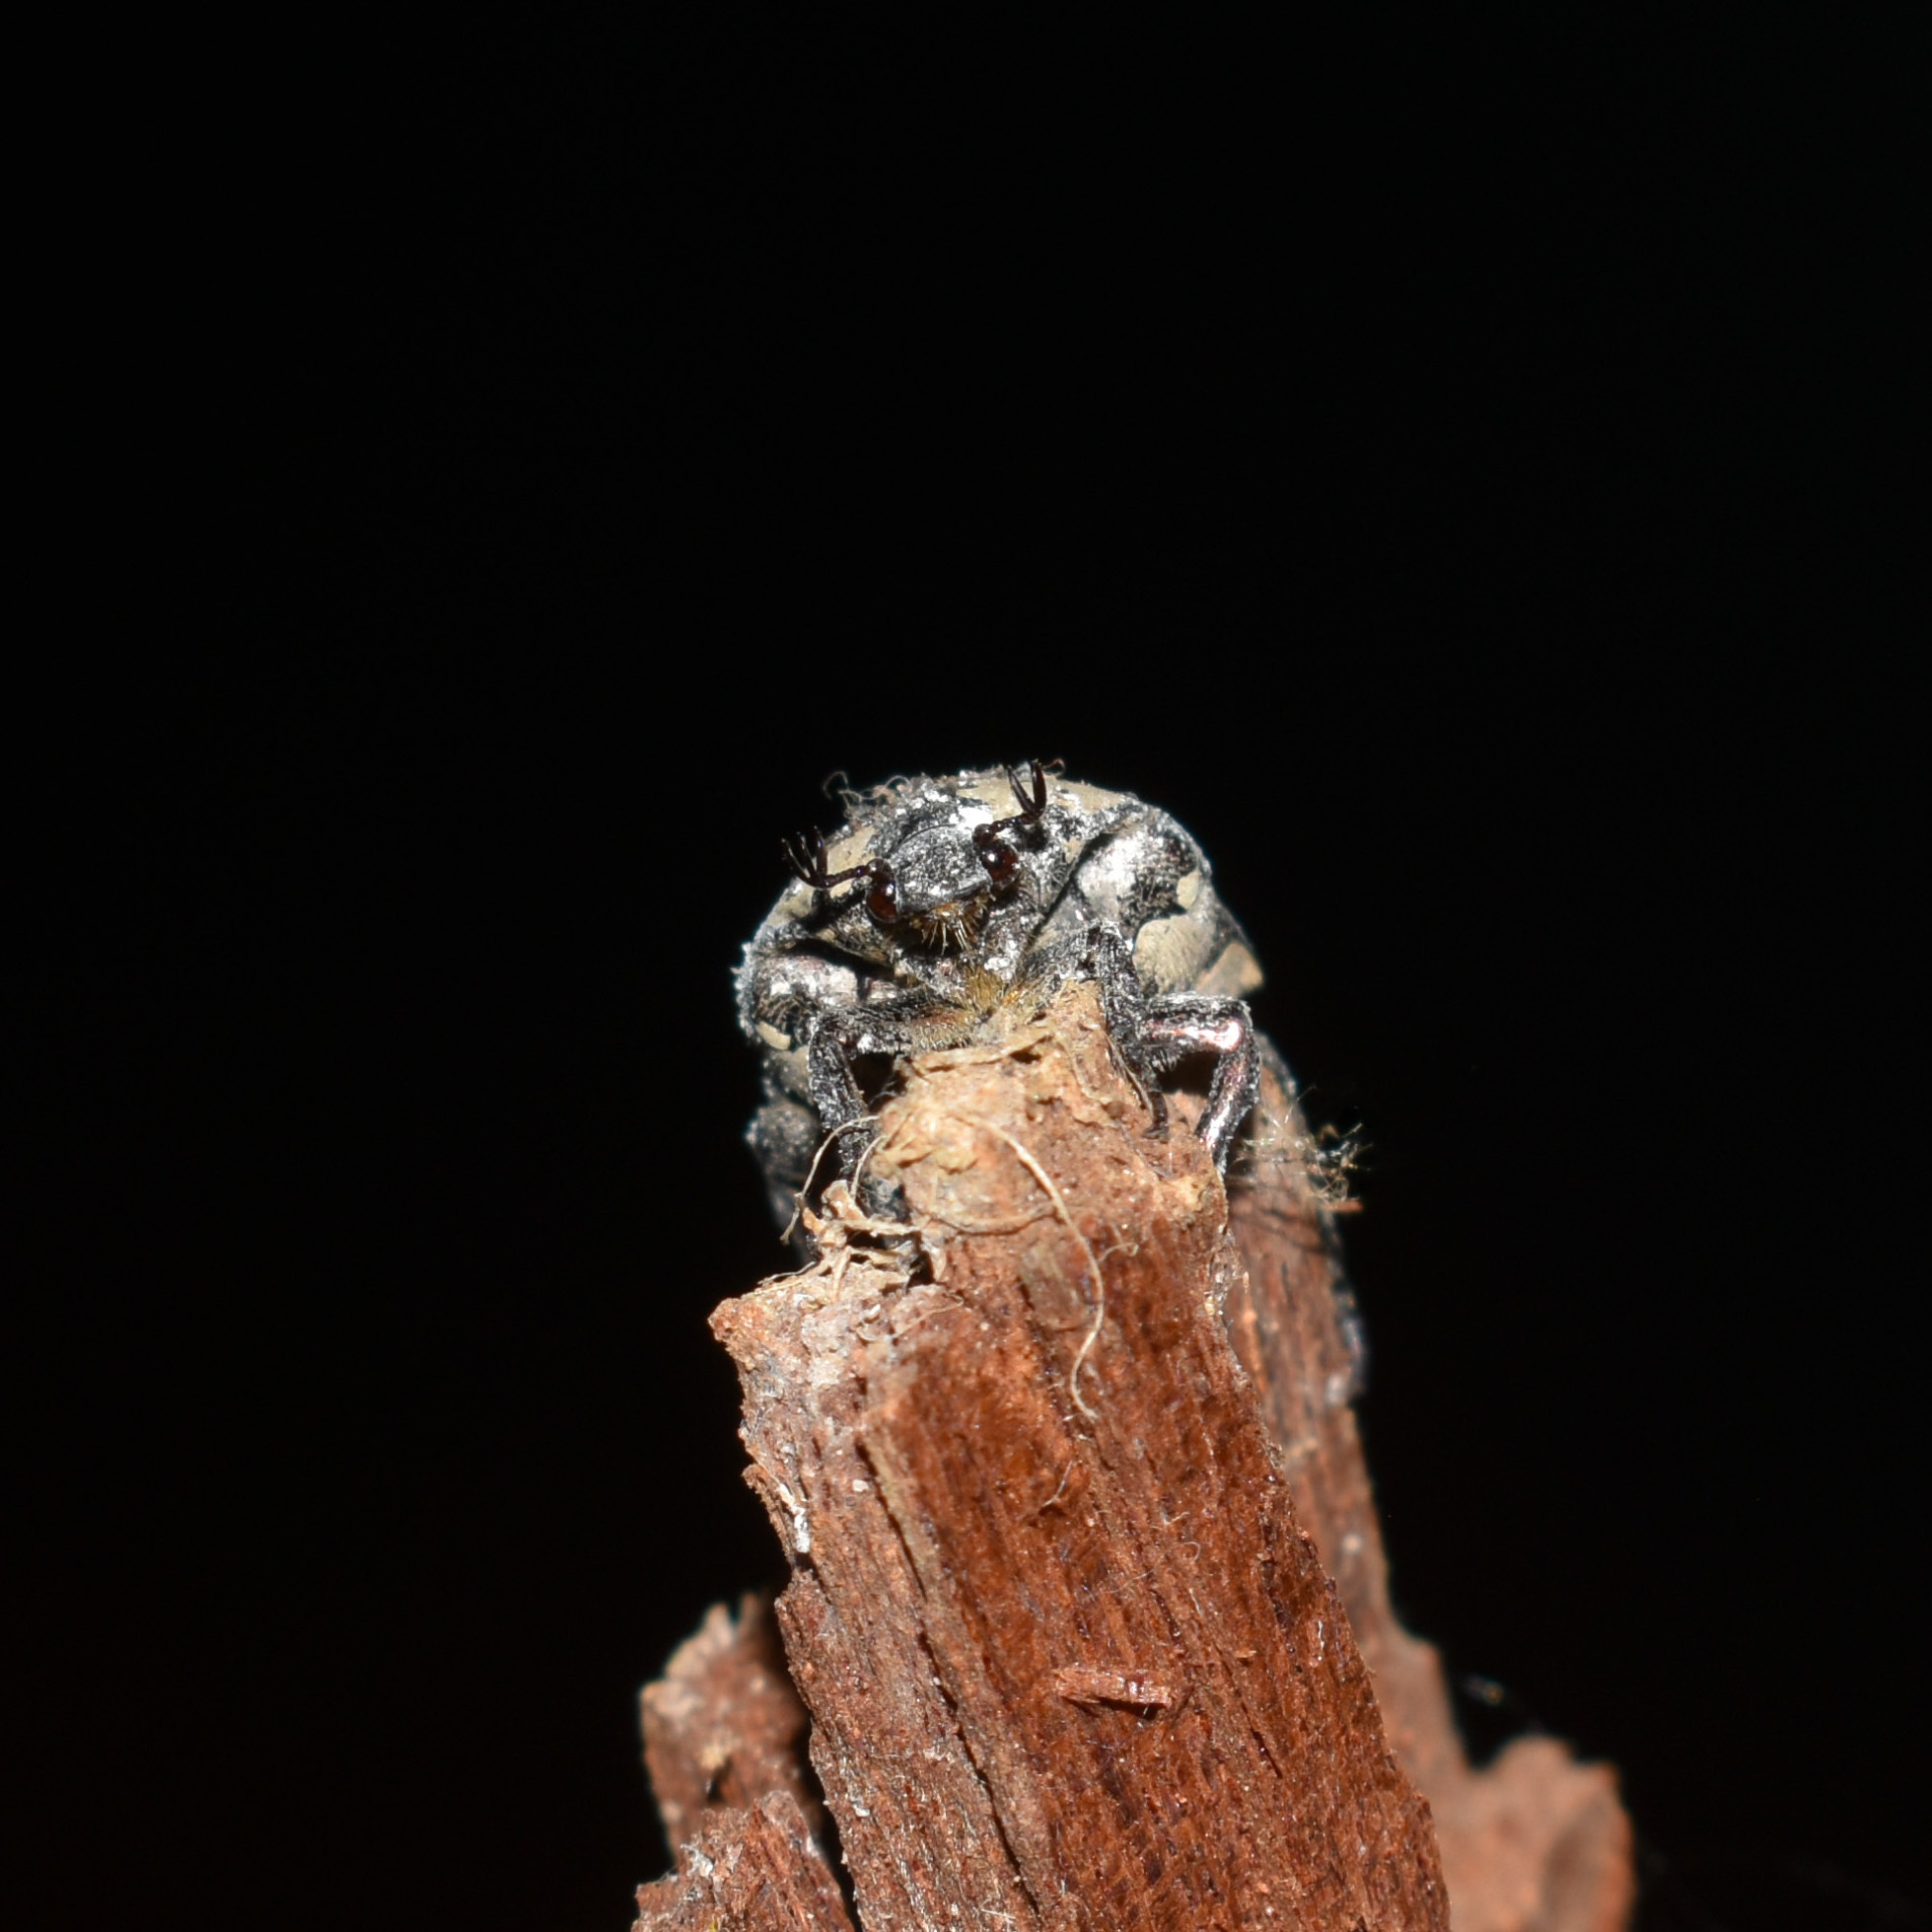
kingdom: Animalia
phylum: Arthropoda
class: Insecta
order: Coleoptera
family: Scarabaeidae
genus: Protaetia
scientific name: Protaetia aurichalcea
